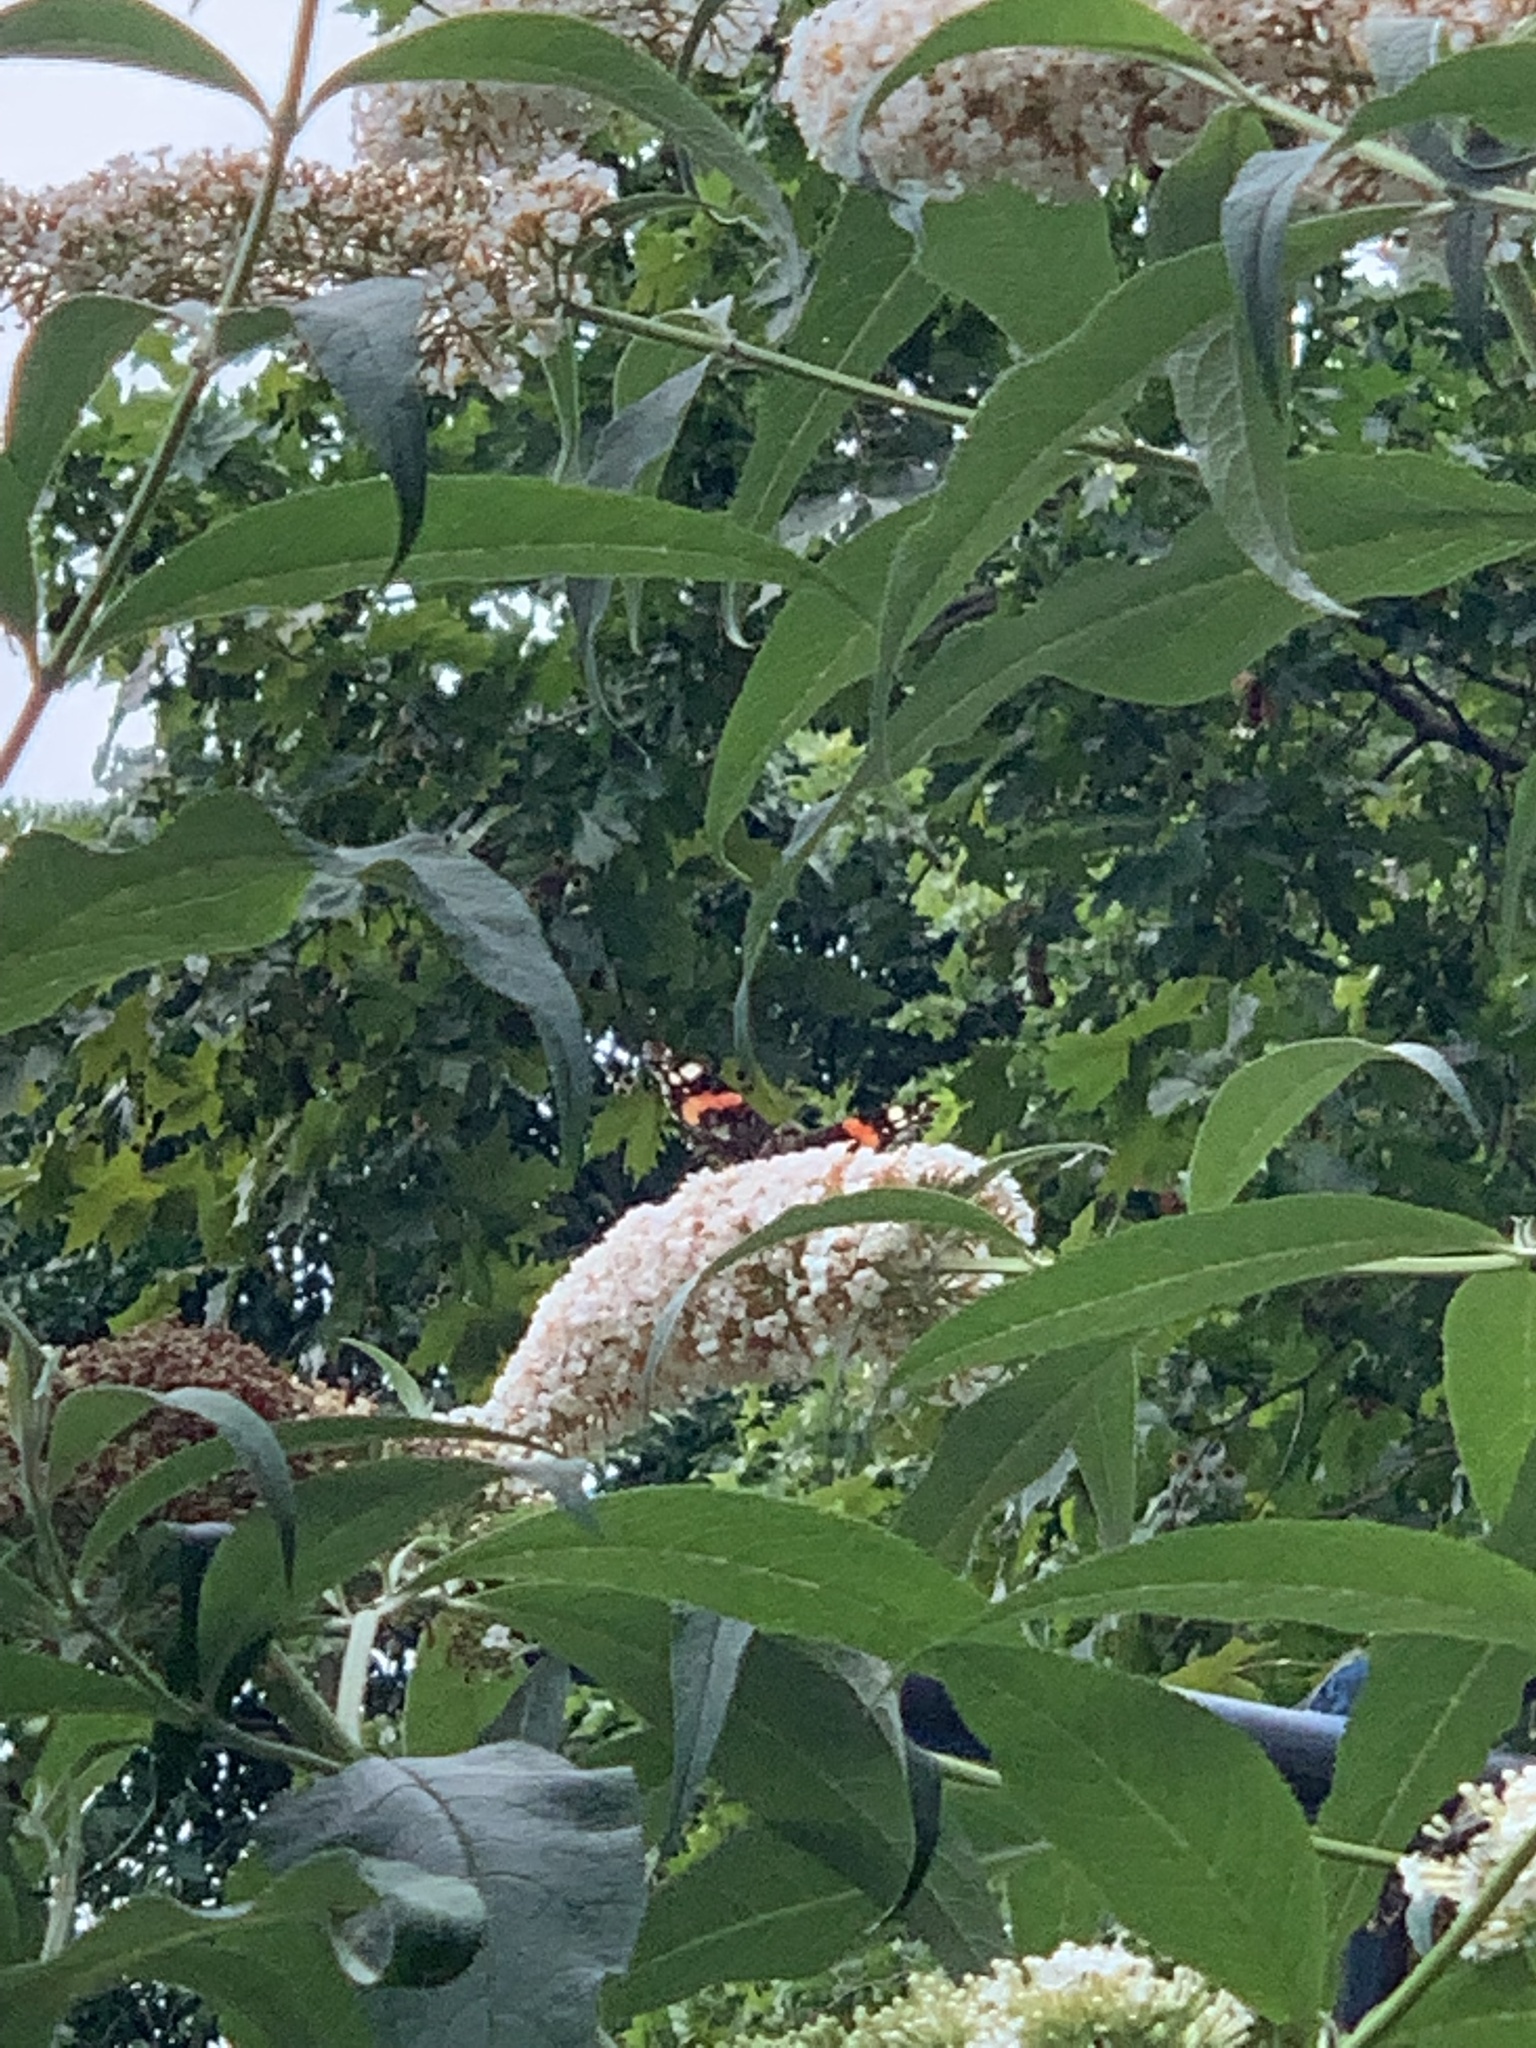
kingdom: Animalia
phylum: Arthropoda
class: Insecta
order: Lepidoptera
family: Nymphalidae
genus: Vanessa
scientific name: Vanessa atalanta
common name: Red admiral
